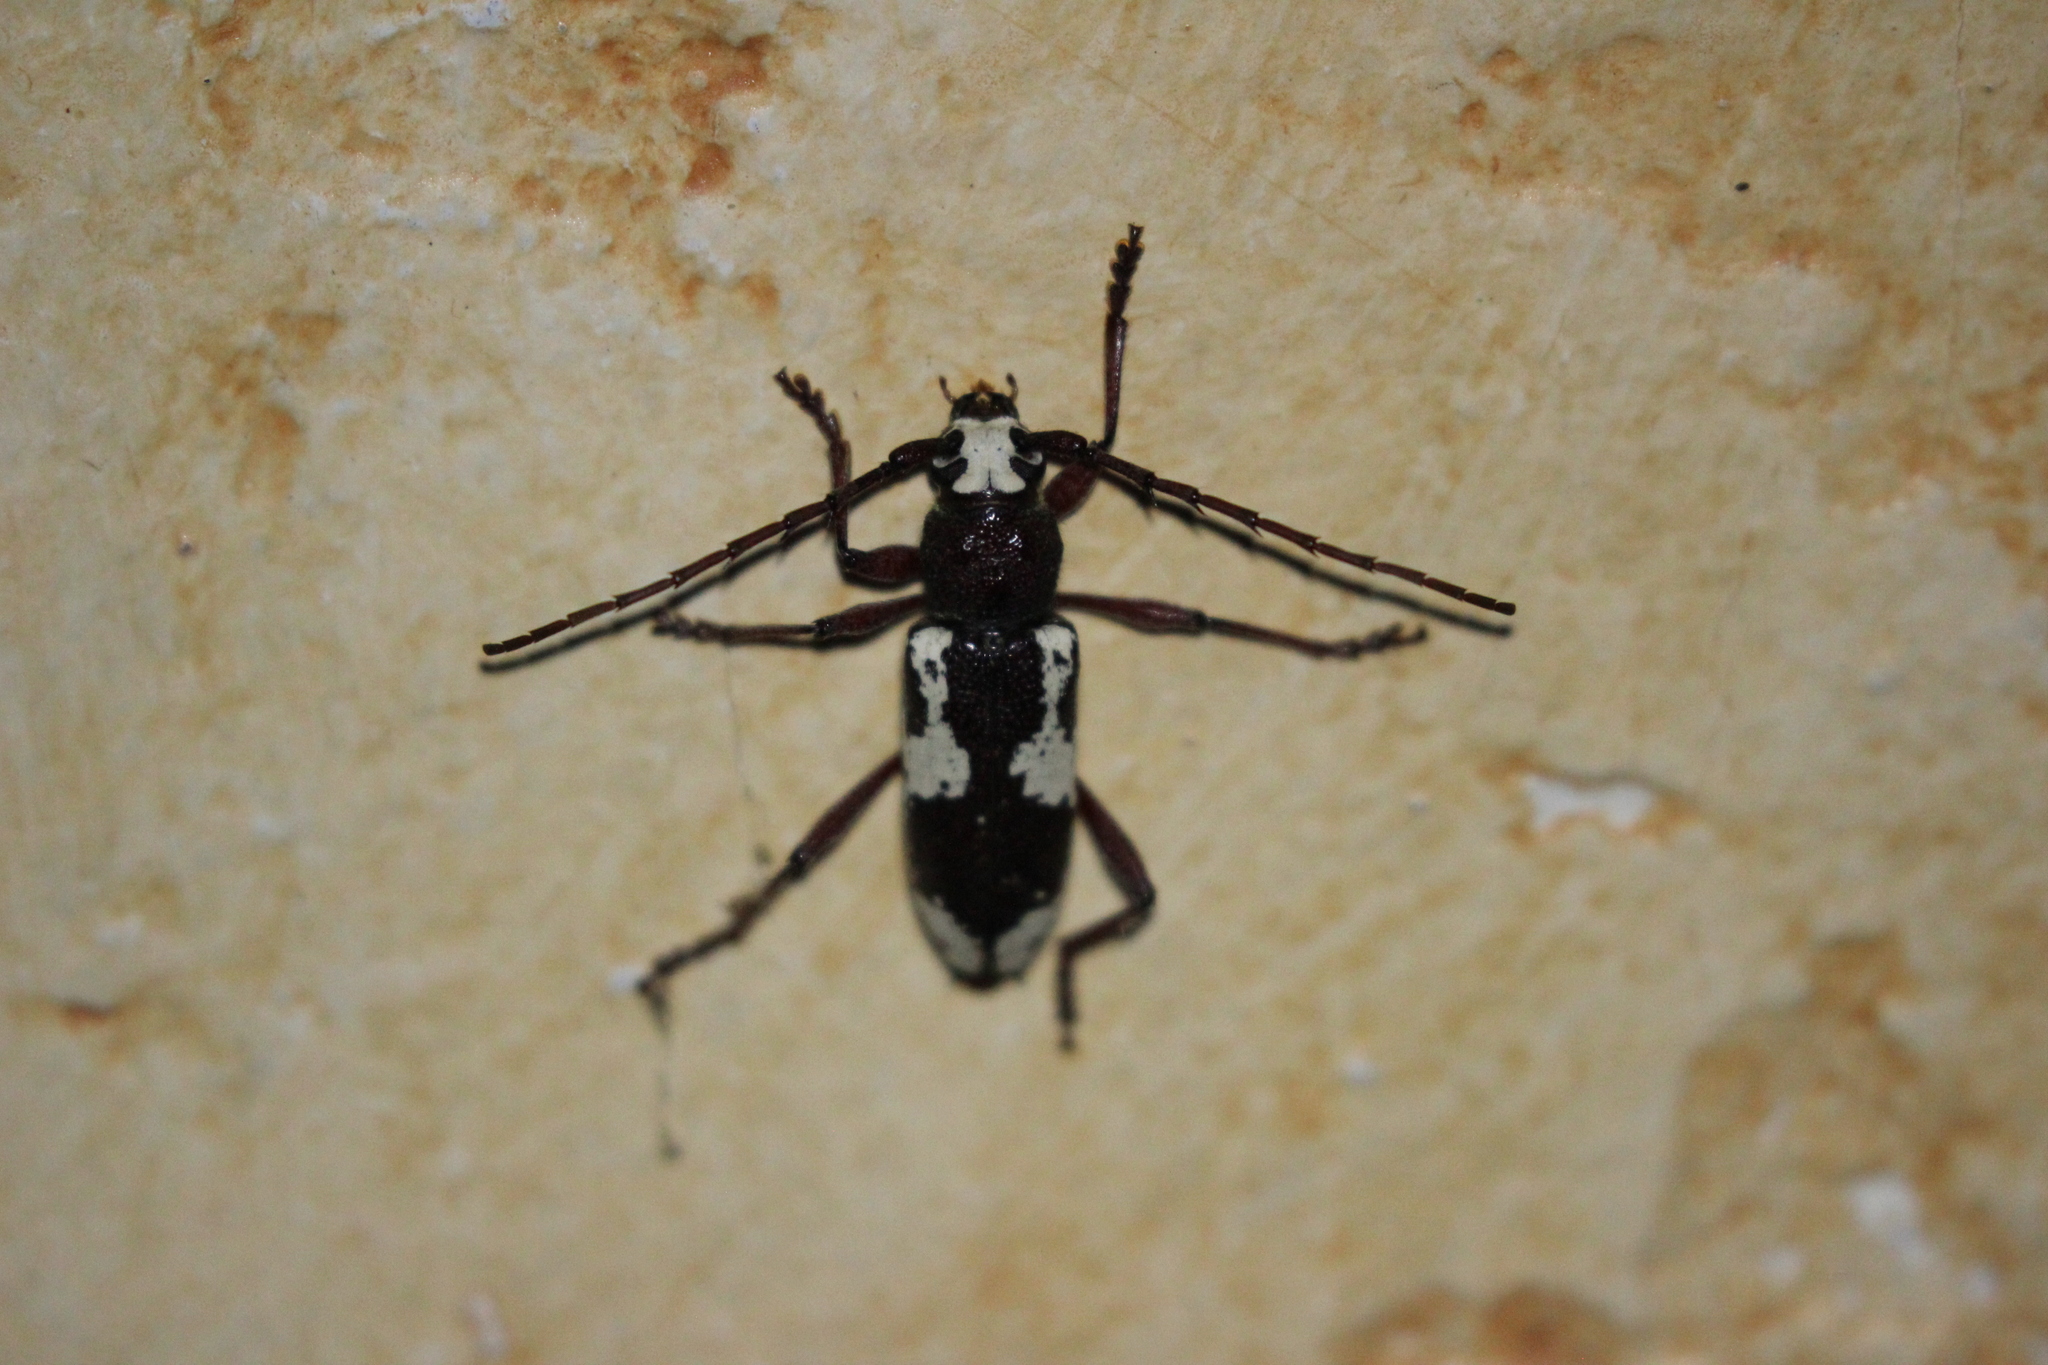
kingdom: Animalia
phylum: Arthropoda
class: Insecta
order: Coleoptera
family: Cerambycidae
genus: Enaphalodes
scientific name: Enaphalodes coronatus
